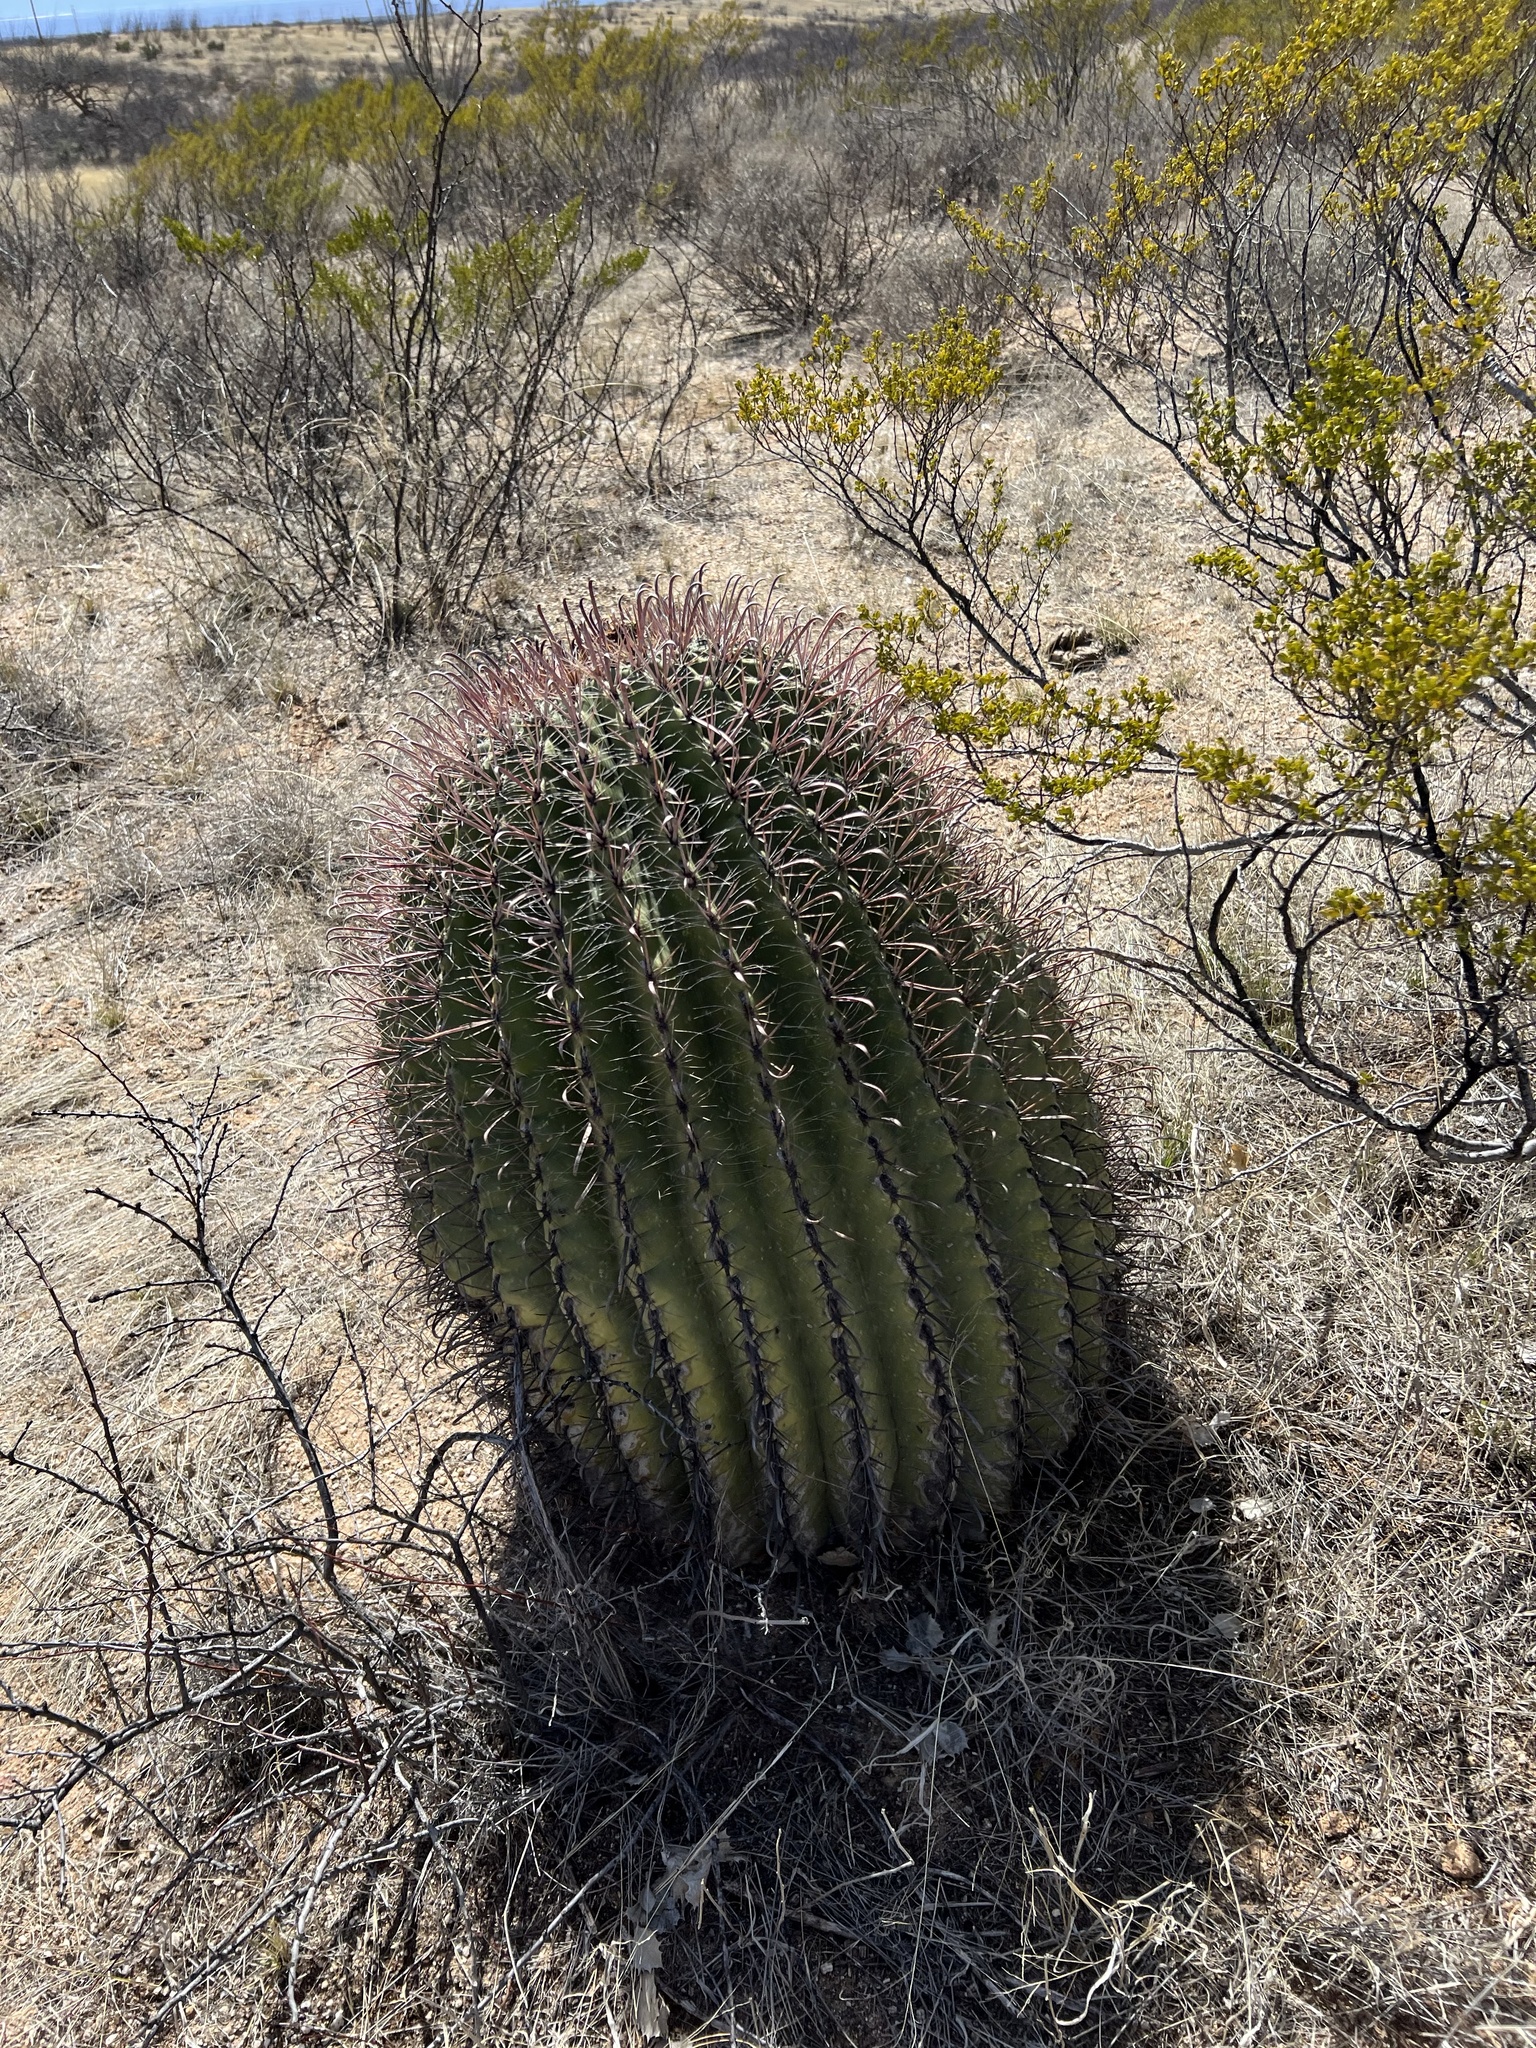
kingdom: Plantae
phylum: Tracheophyta
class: Magnoliopsida
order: Caryophyllales
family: Cactaceae
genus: Ferocactus
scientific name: Ferocactus wislizeni
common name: Candy barrel cactus
